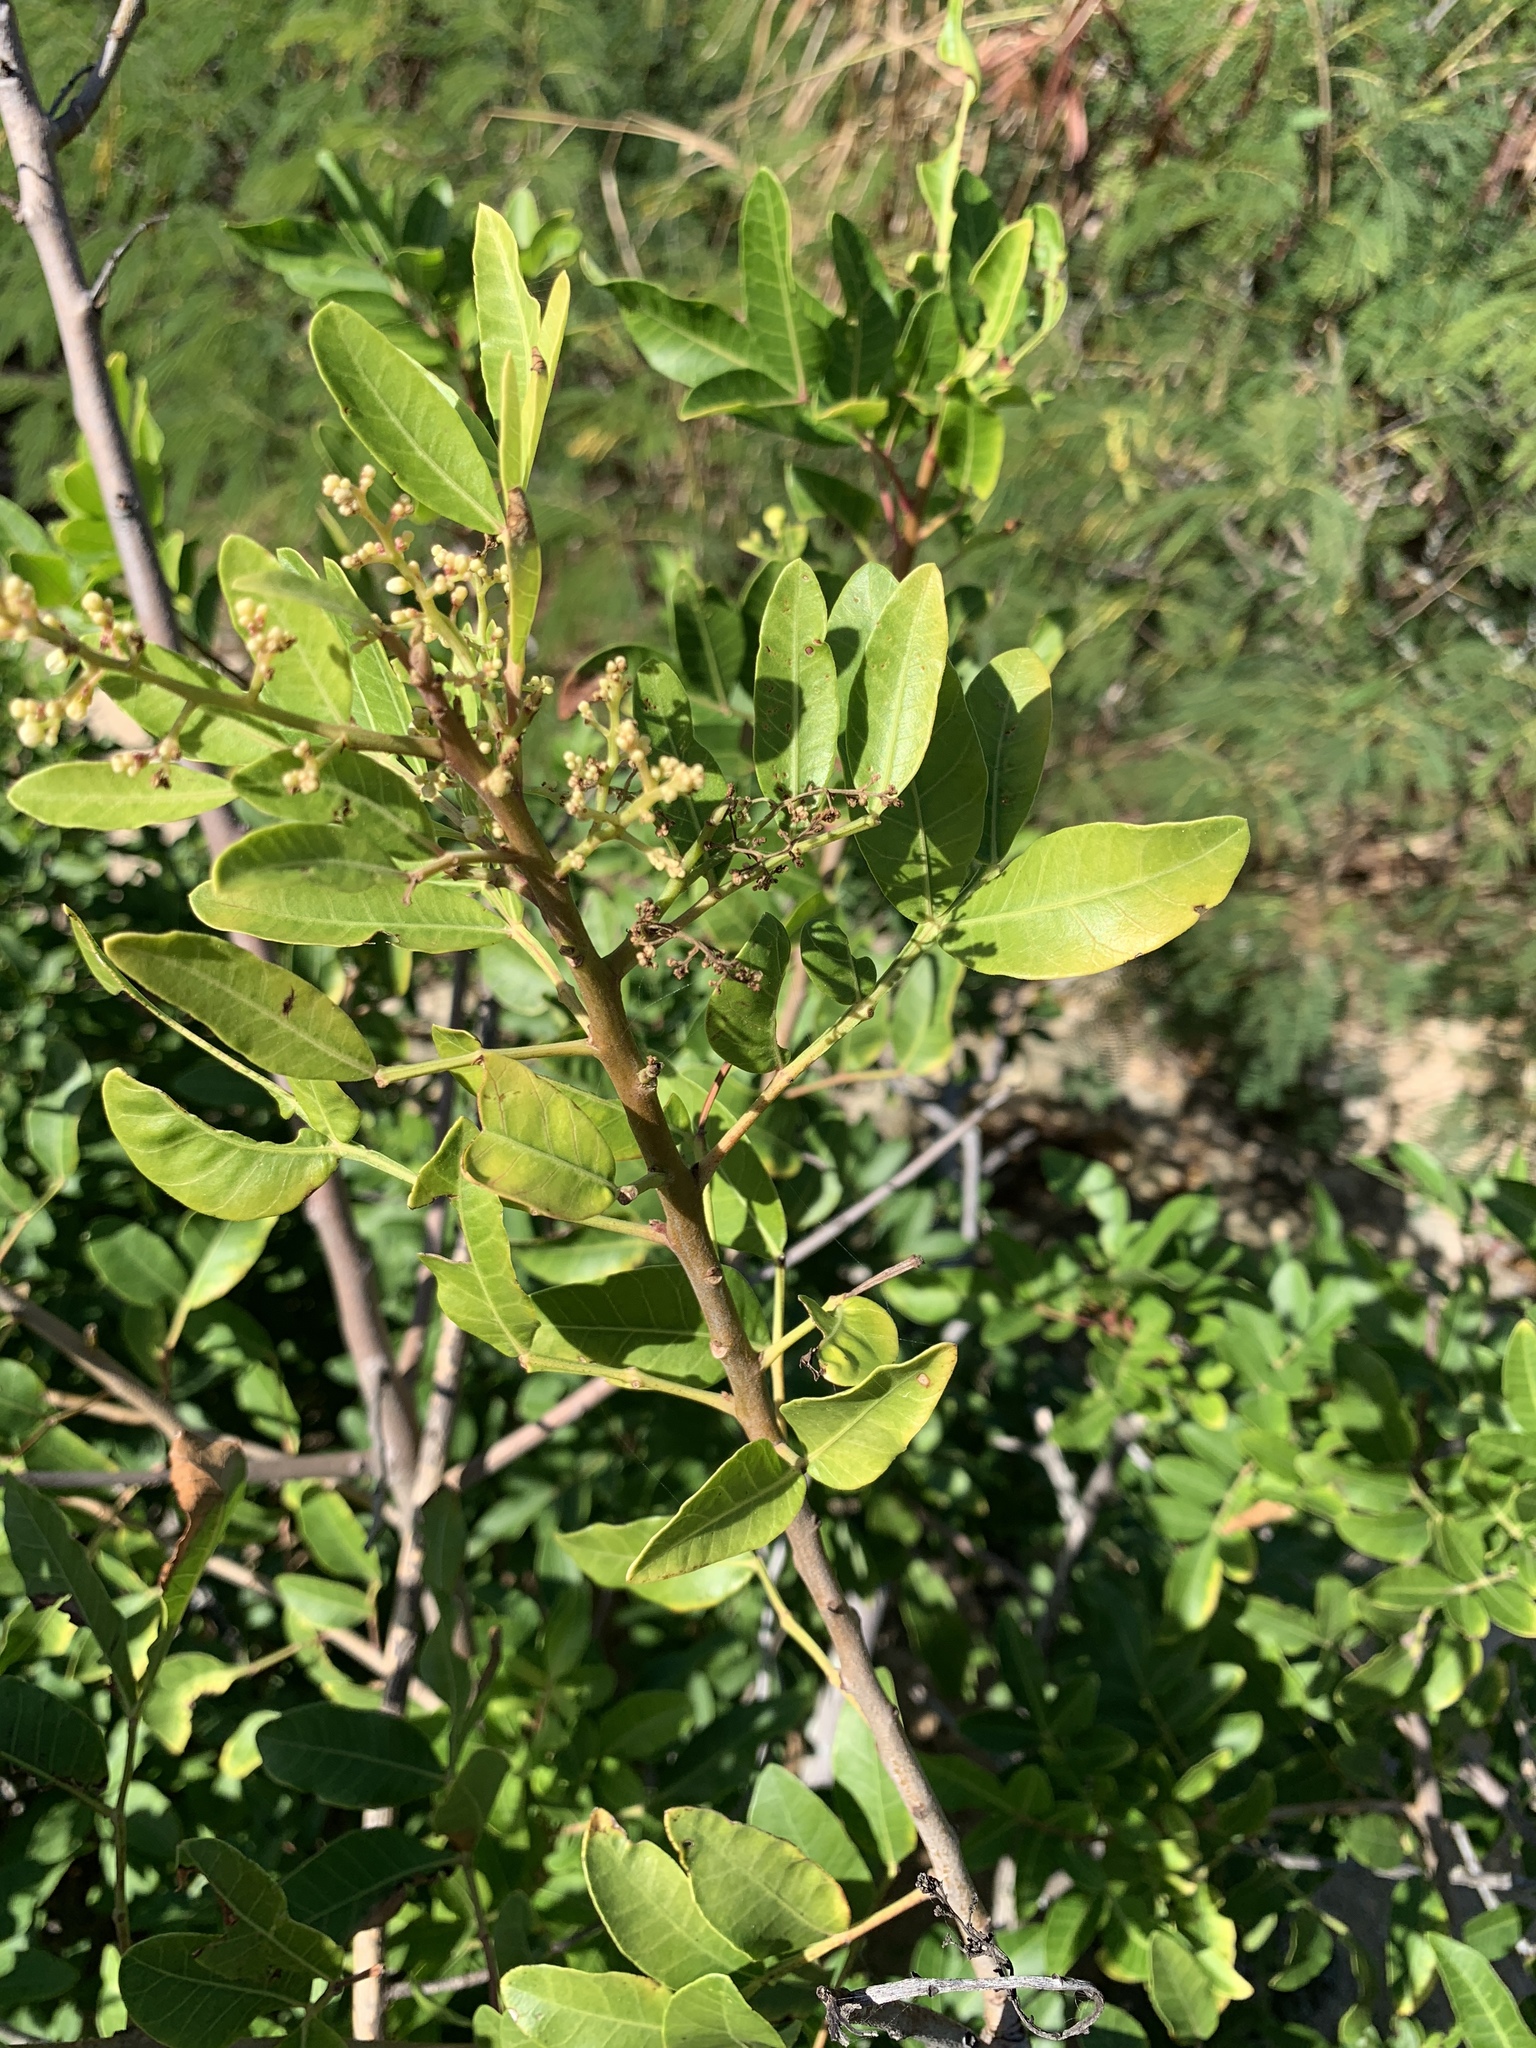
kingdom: Plantae
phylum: Tracheophyta
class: Magnoliopsida
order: Sapindales
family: Anacardiaceae
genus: Schinus
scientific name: Schinus terebinthifolia
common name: Brazilian peppertree
